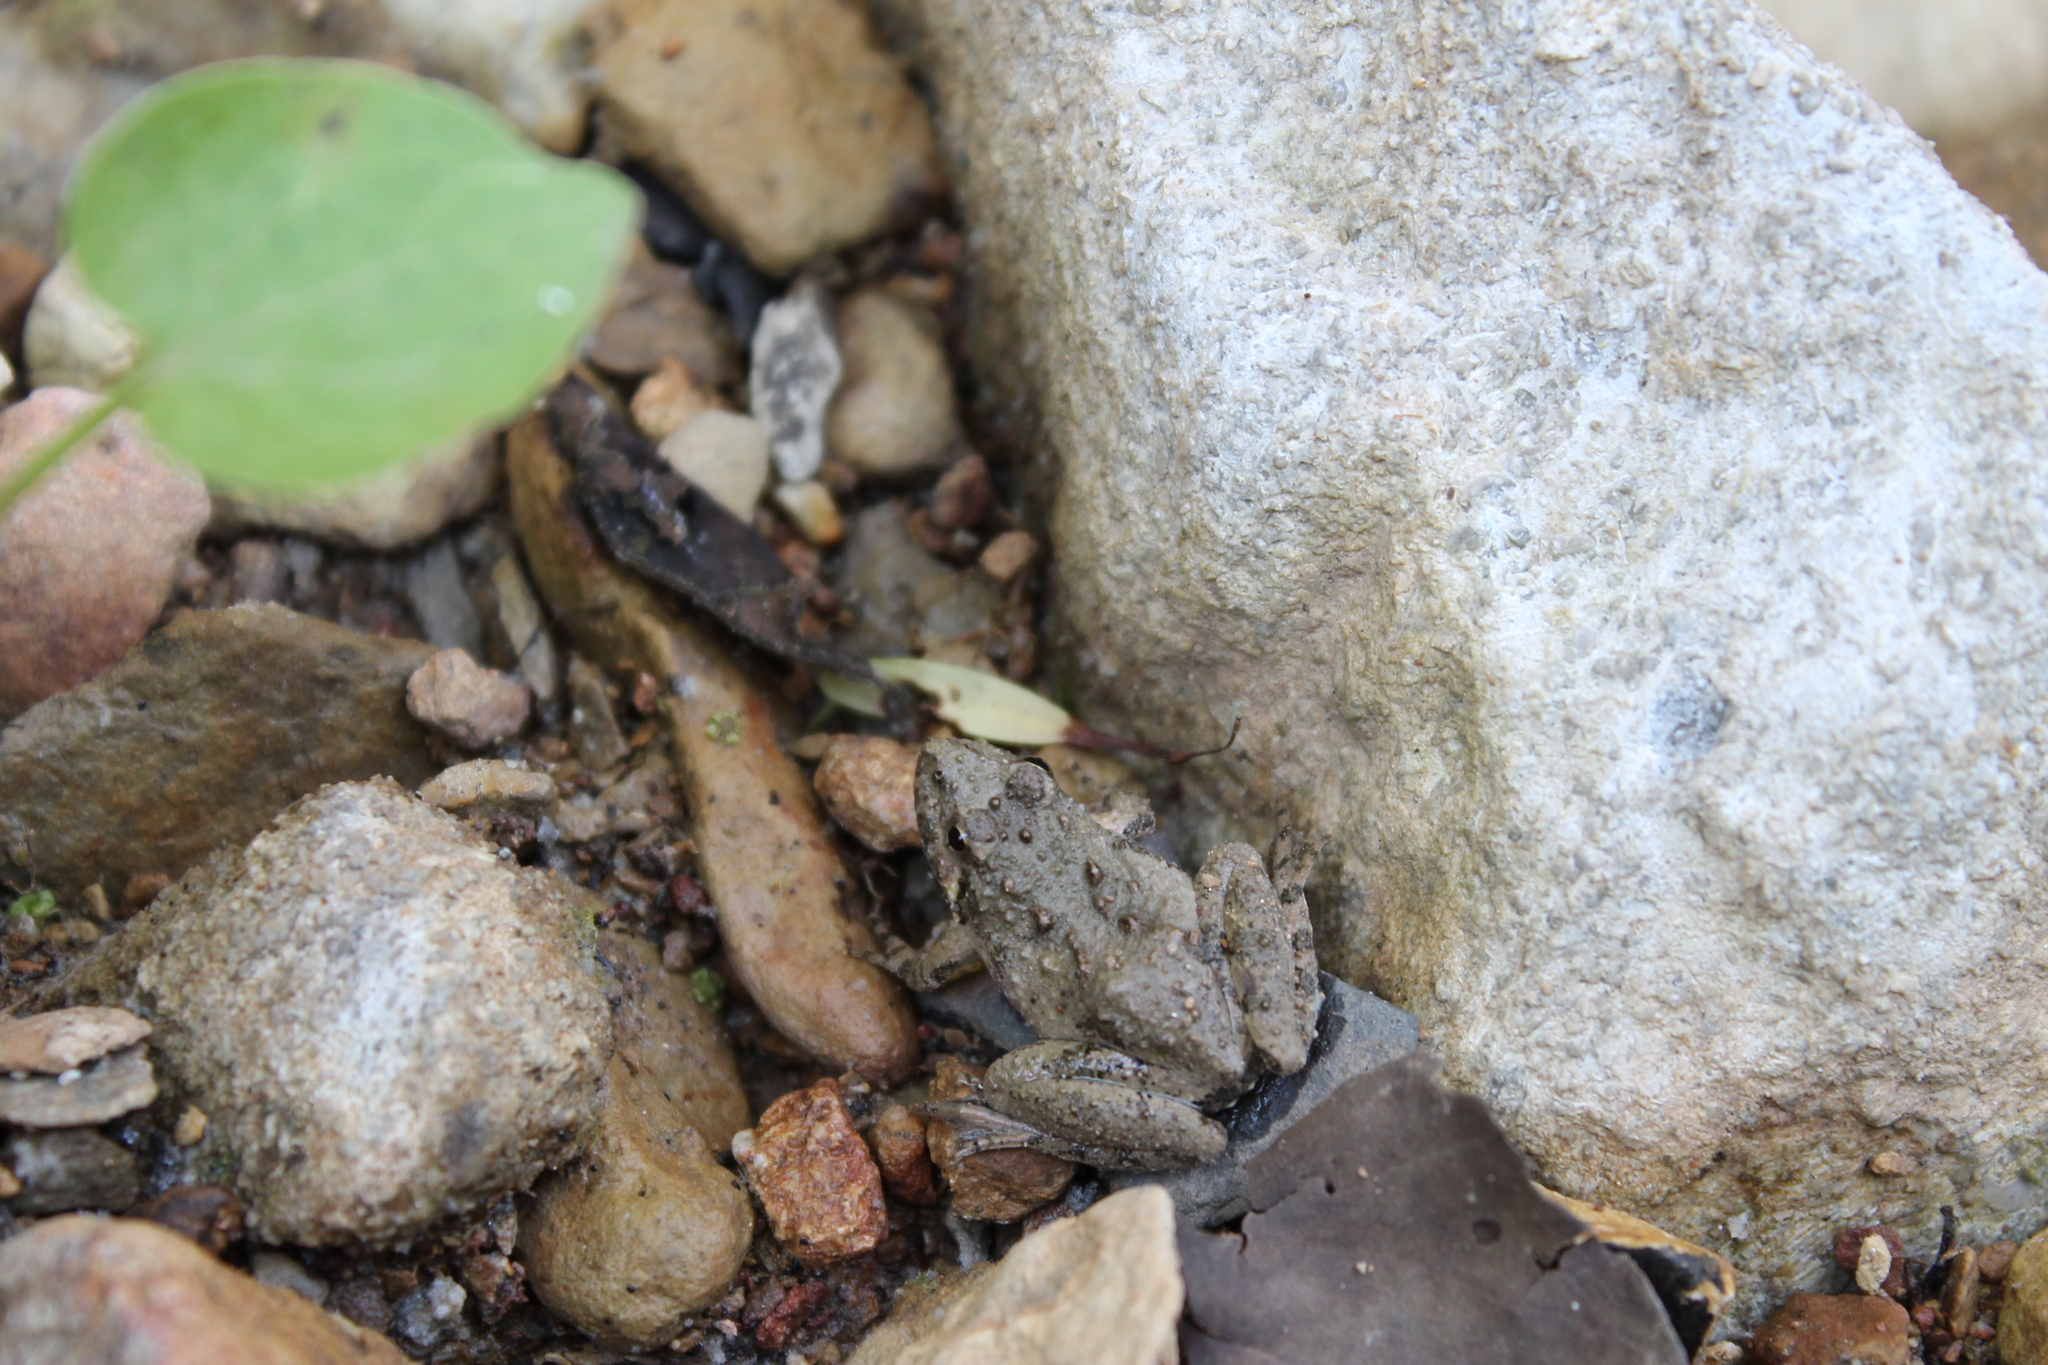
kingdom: Animalia
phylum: Chordata
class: Amphibia
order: Anura
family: Hylidae
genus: Acris
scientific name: Acris crepitans
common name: Northern cricket frog
